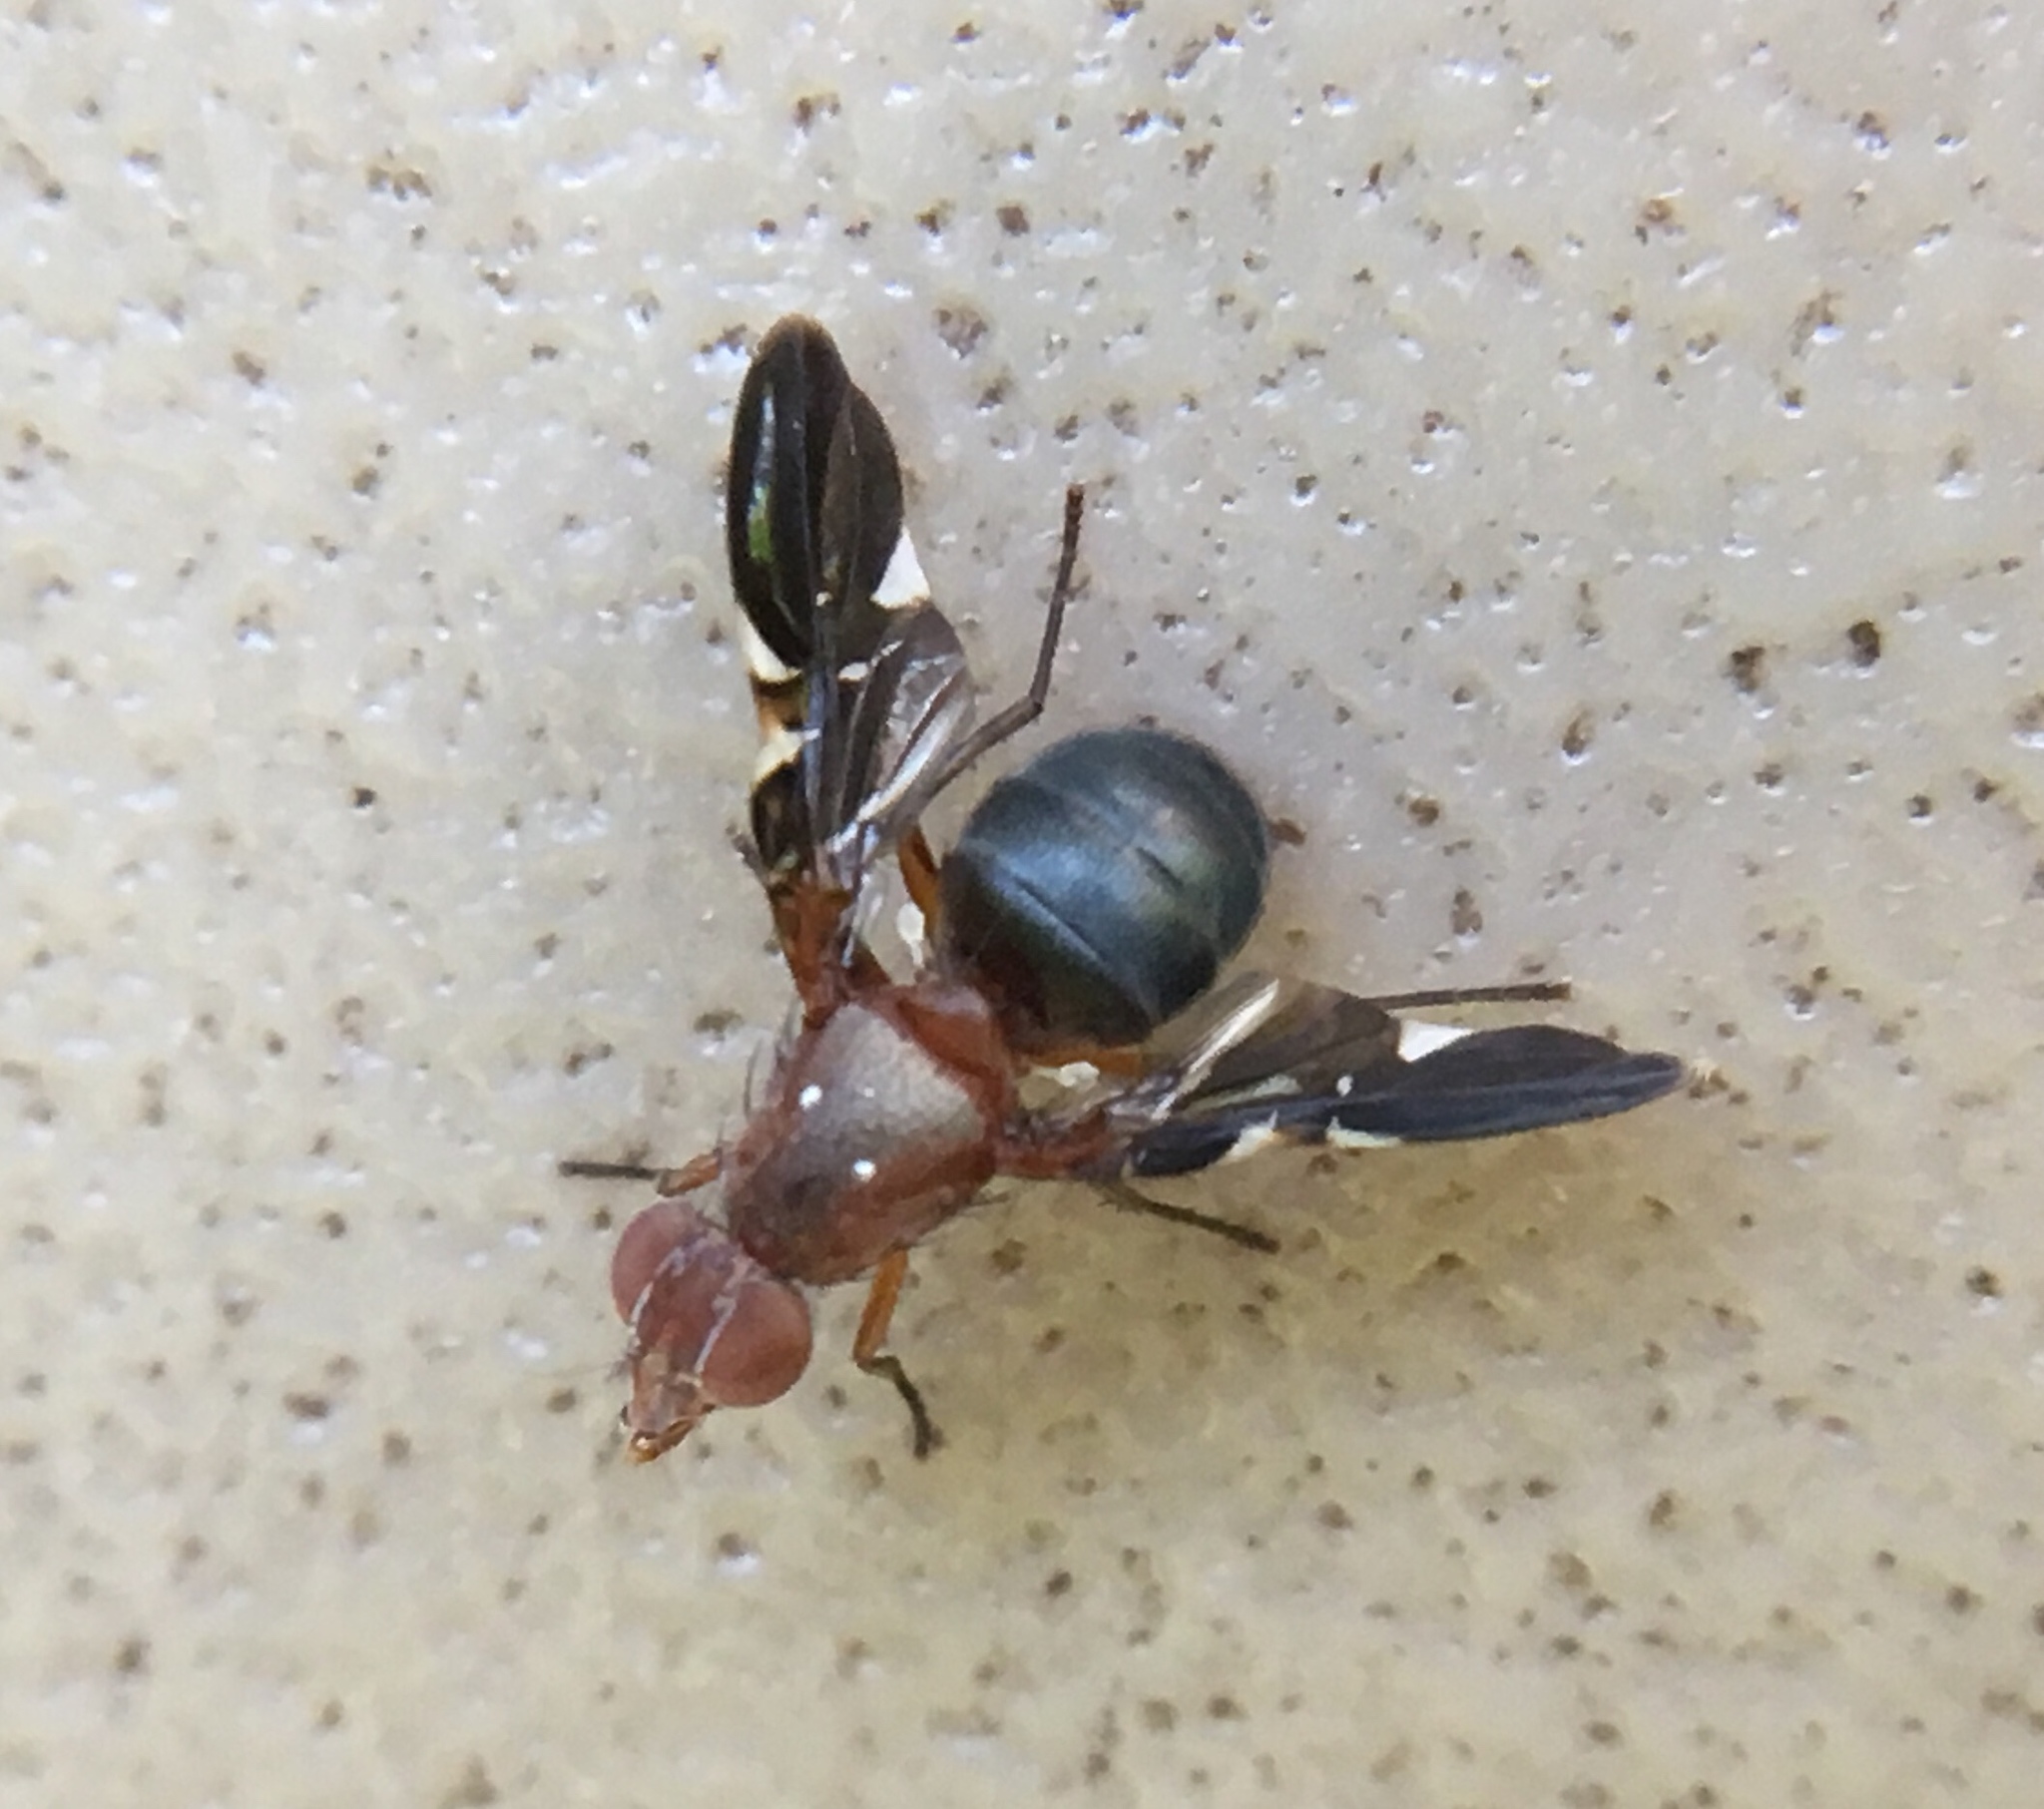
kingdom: Animalia
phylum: Arthropoda
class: Insecta
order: Diptera
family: Ulidiidae
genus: Delphinia
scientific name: Delphinia picta
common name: Common picture-winged fly
